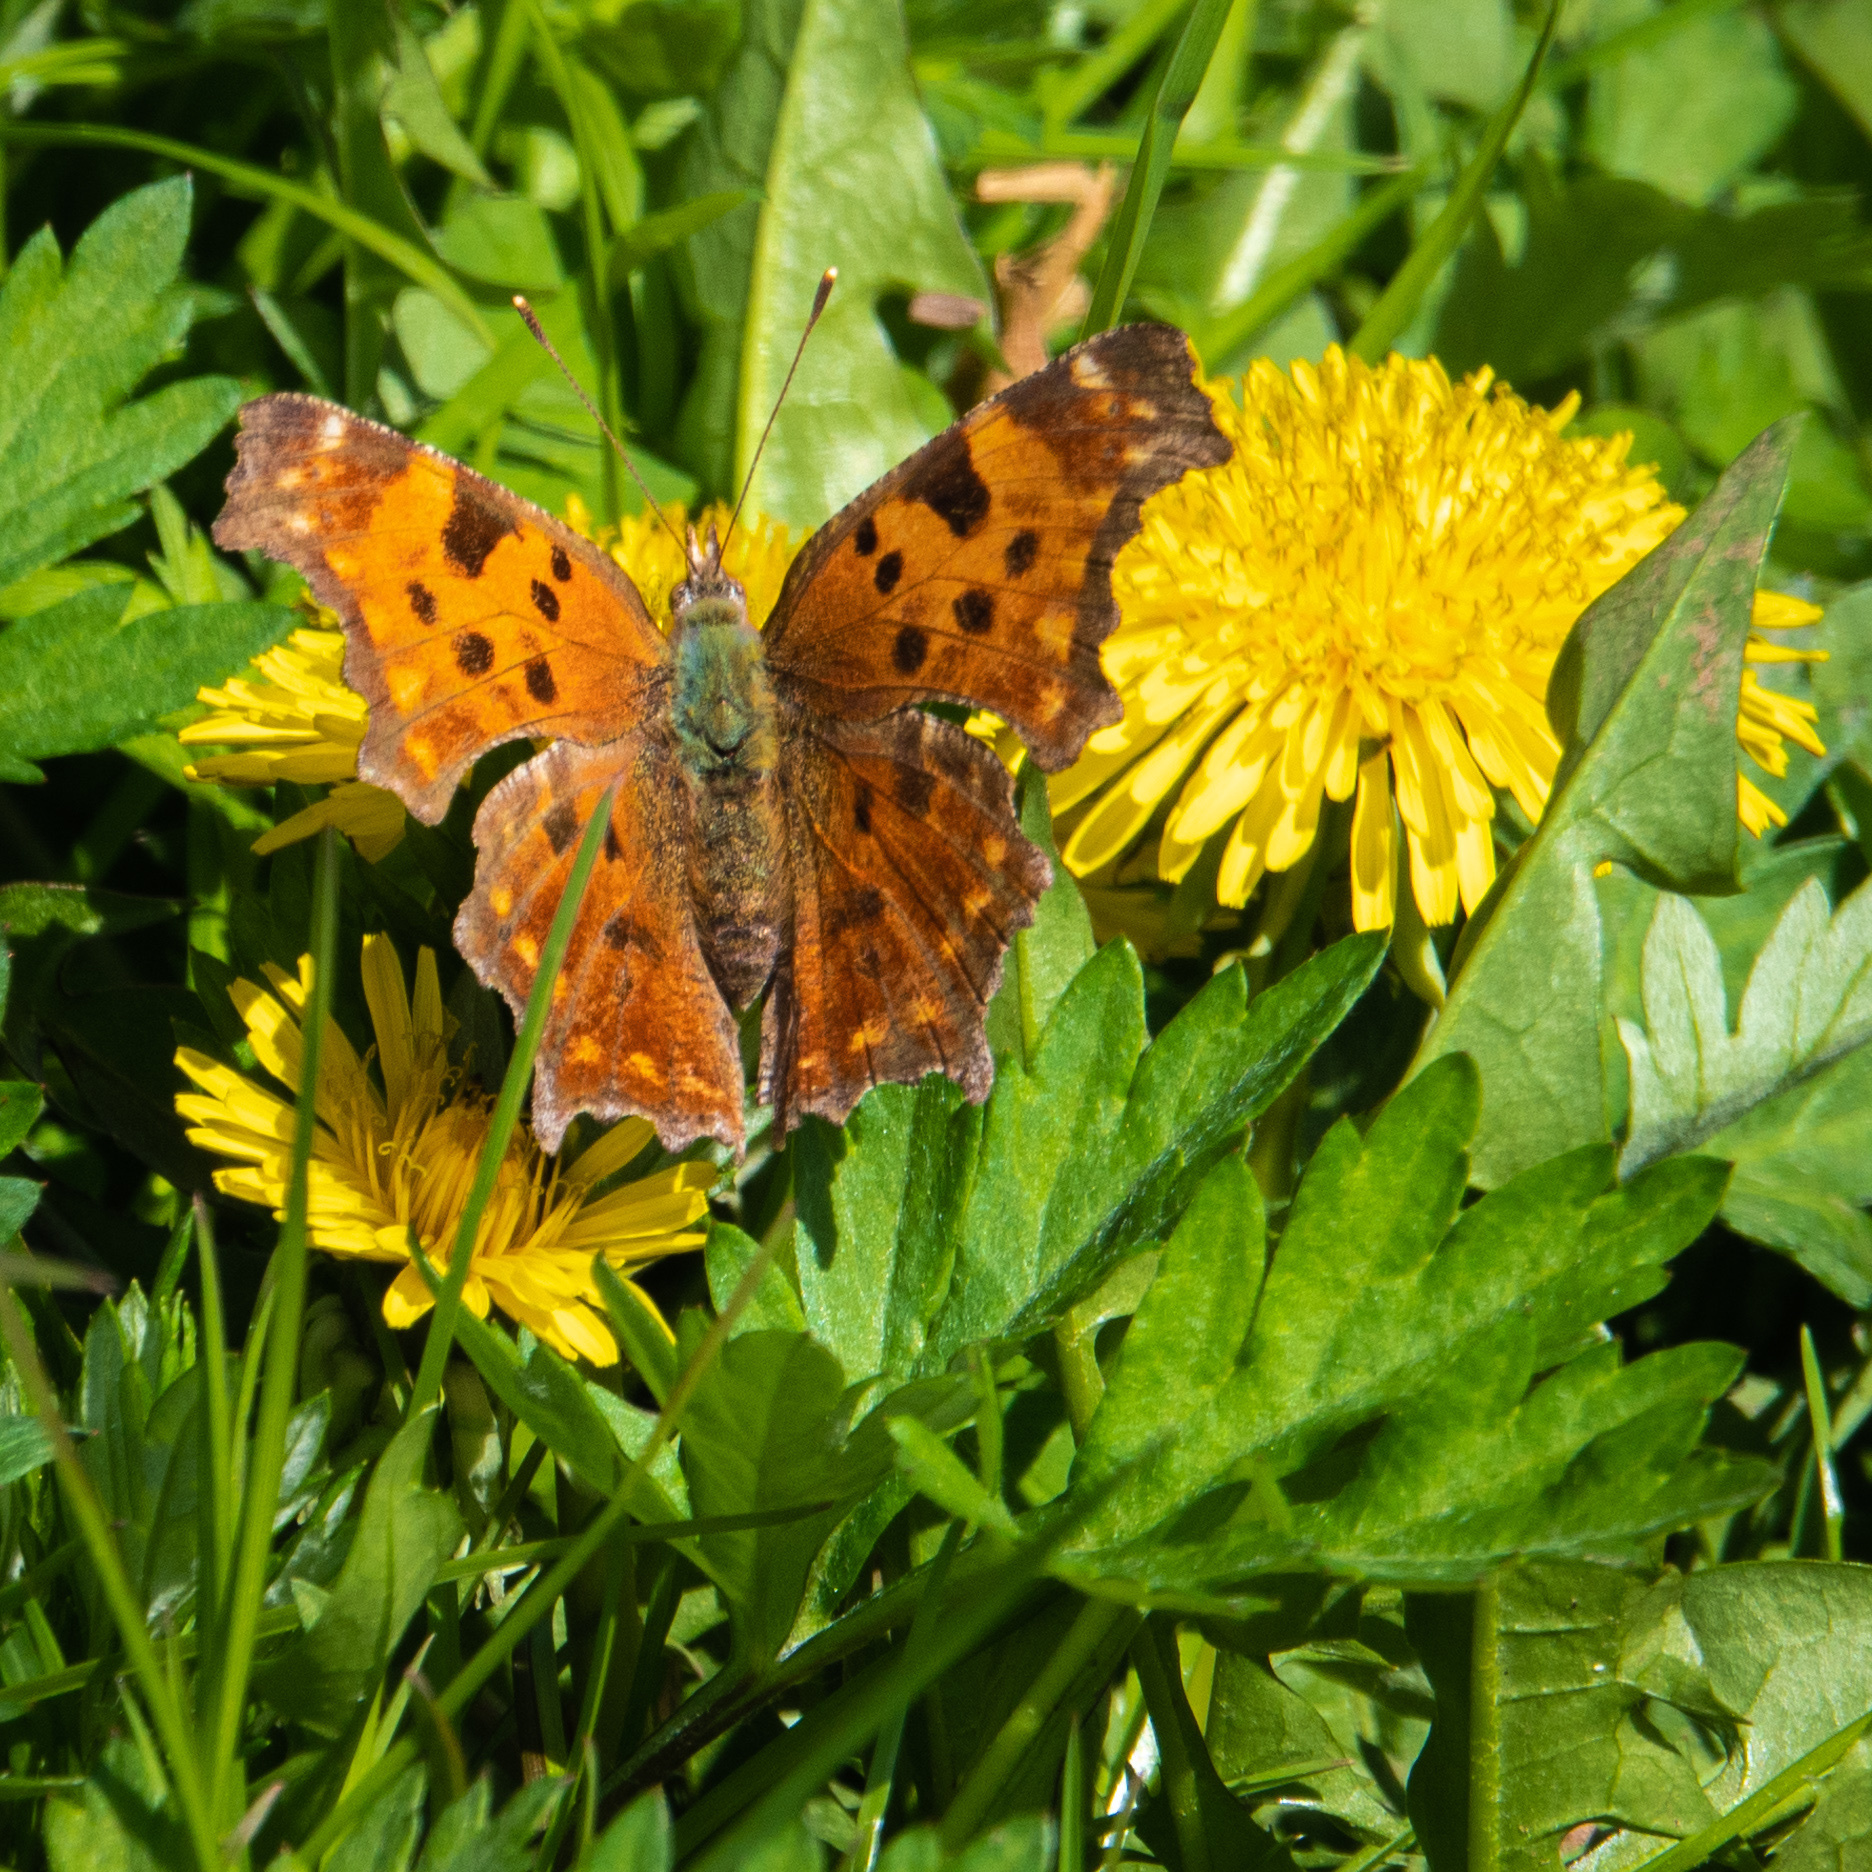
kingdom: Animalia
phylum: Arthropoda
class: Insecta
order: Lepidoptera
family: Nymphalidae
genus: Polygonia
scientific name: Polygonia comma
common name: Eastern comma
